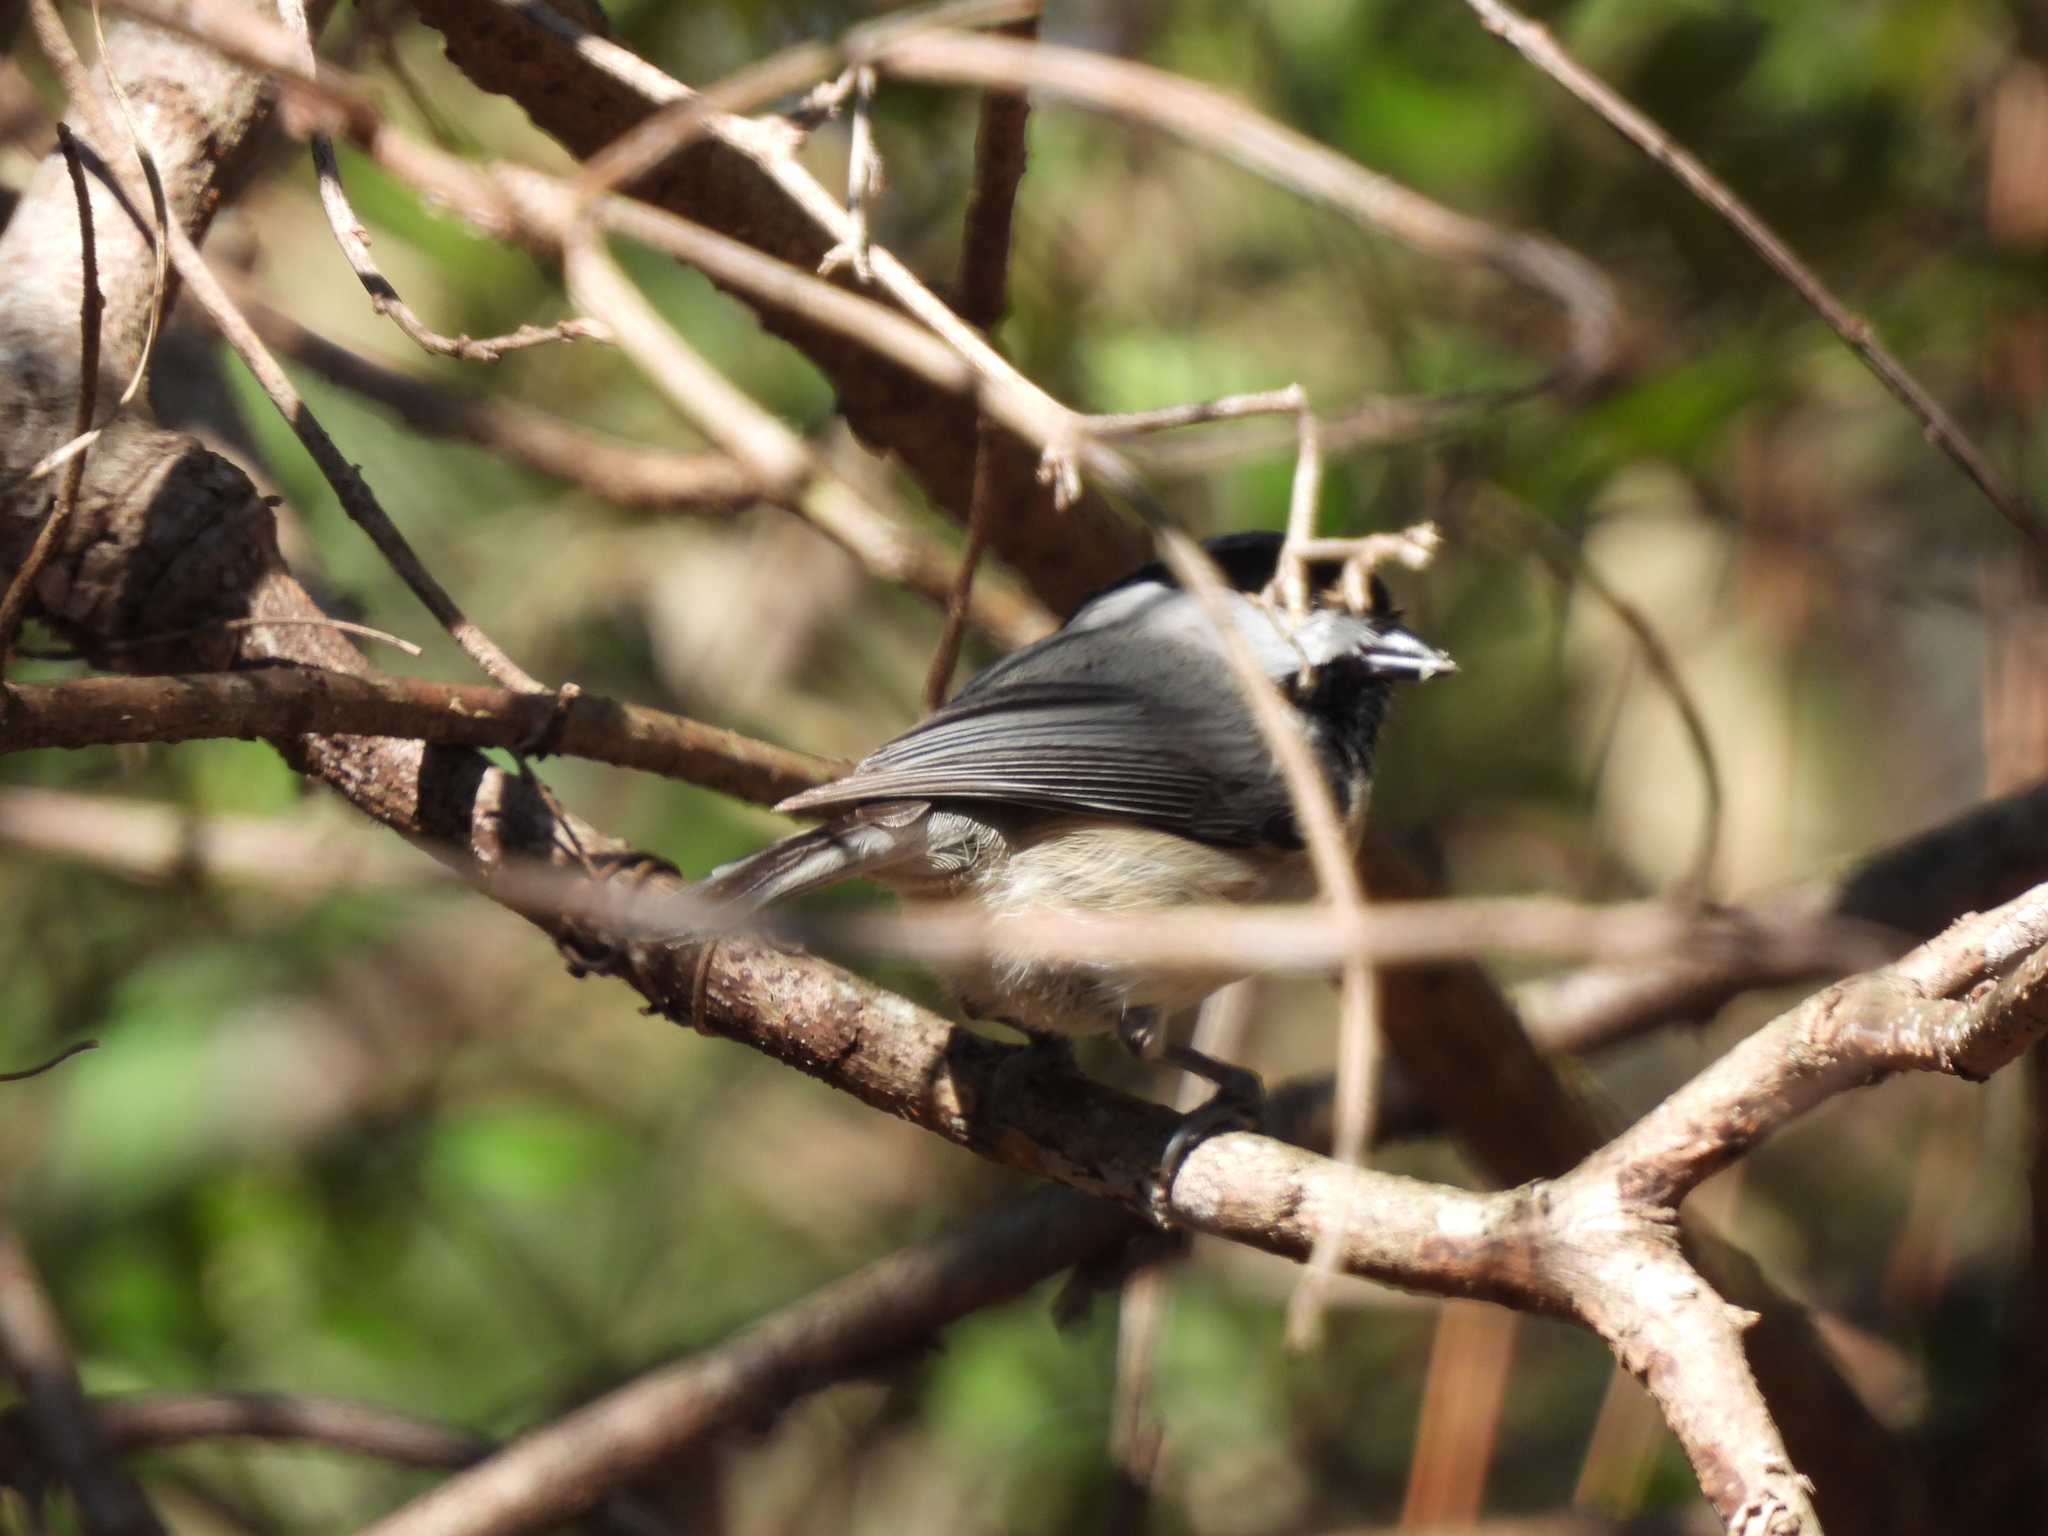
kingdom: Animalia
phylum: Chordata
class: Aves
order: Passeriformes
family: Paridae
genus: Poecile
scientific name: Poecile carolinensis
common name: Carolina chickadee
